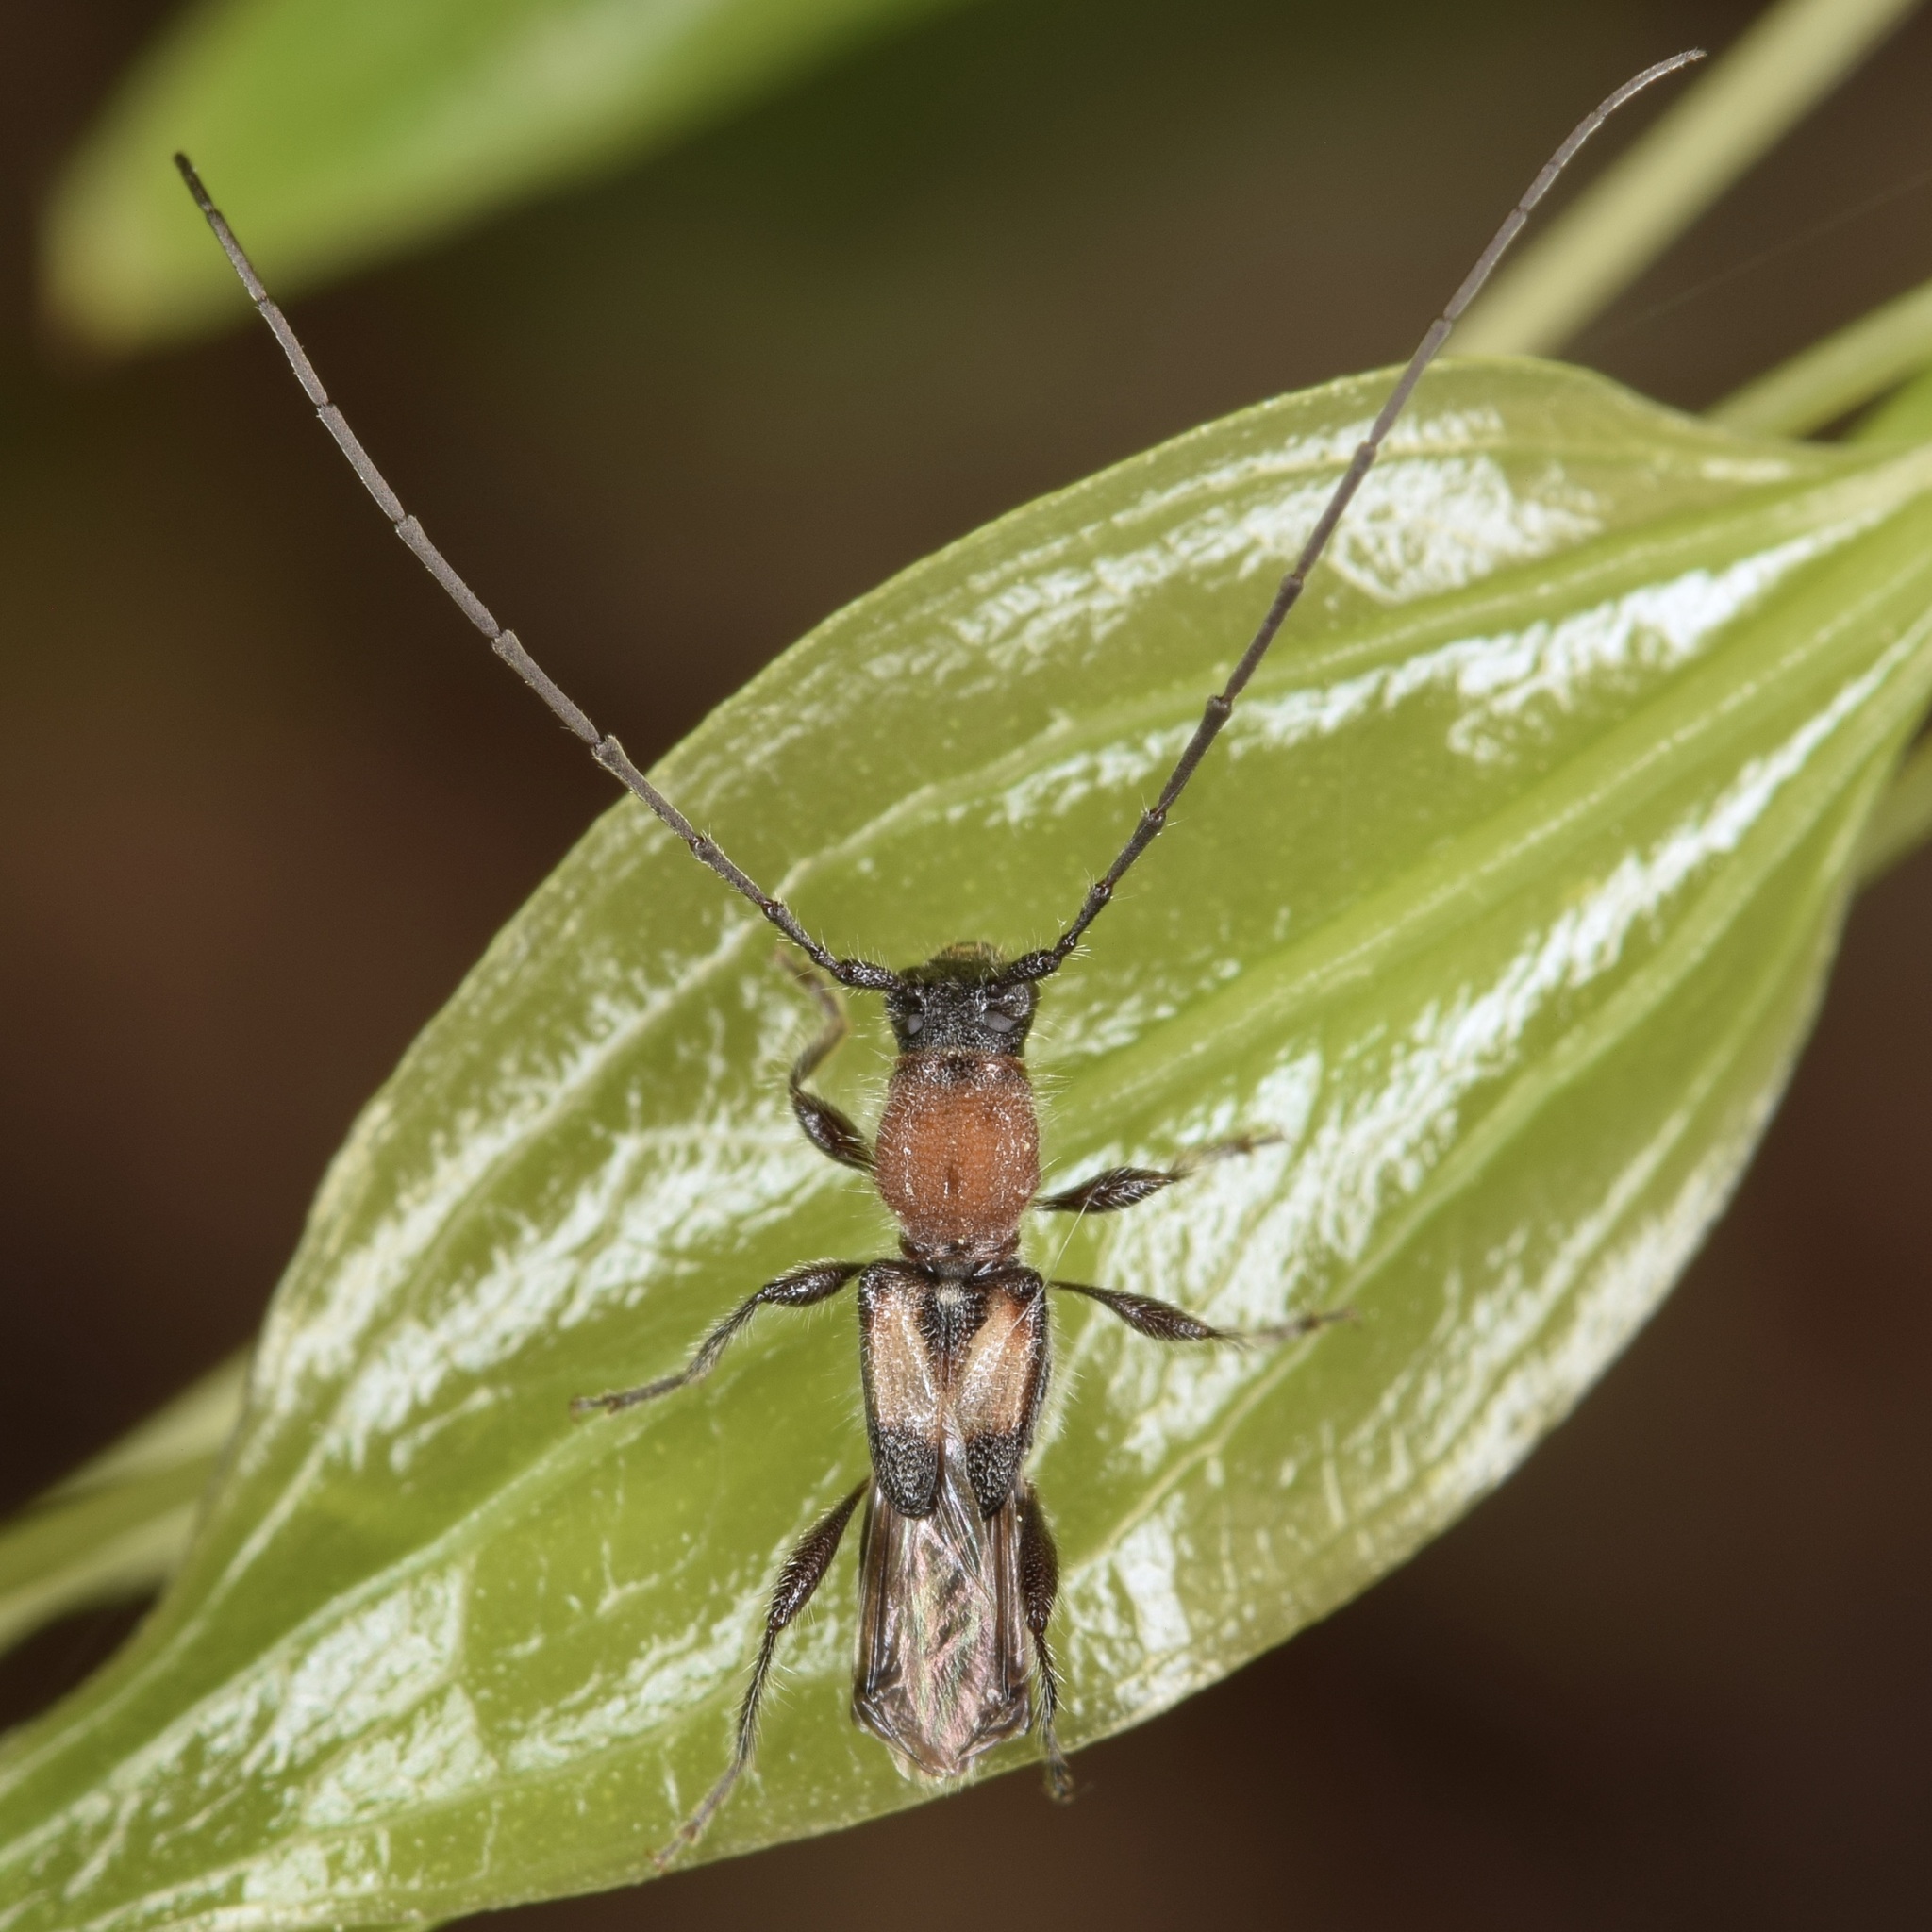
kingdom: Animalia
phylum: Arthropoda
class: Insecta
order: Coleoptera
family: Cerambycidae
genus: Molorchus
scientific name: Molorchus bimaculatus
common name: Bimaculate longhorn beetle
